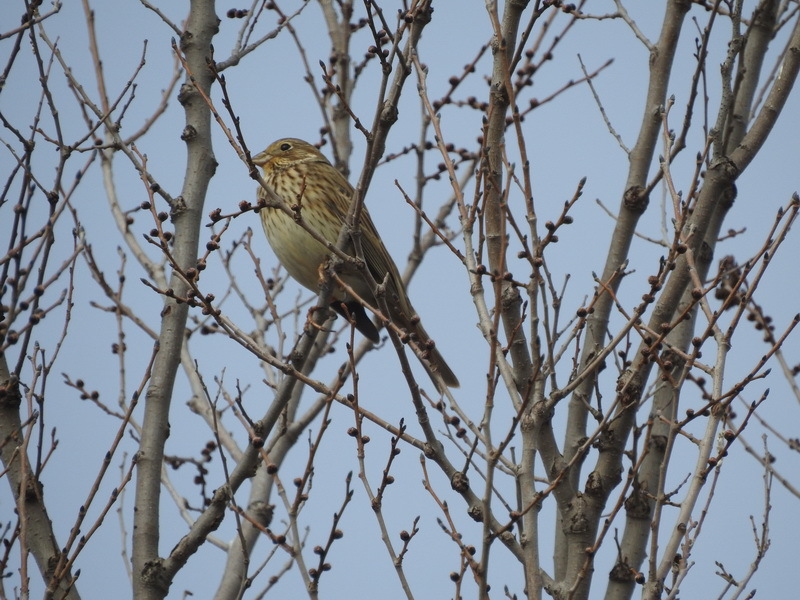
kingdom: Animalia
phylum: Chordata
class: Aves
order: Passeriformes
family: Emberizidae
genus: Emberiza
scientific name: Emberiza calandra
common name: Corn bunting
